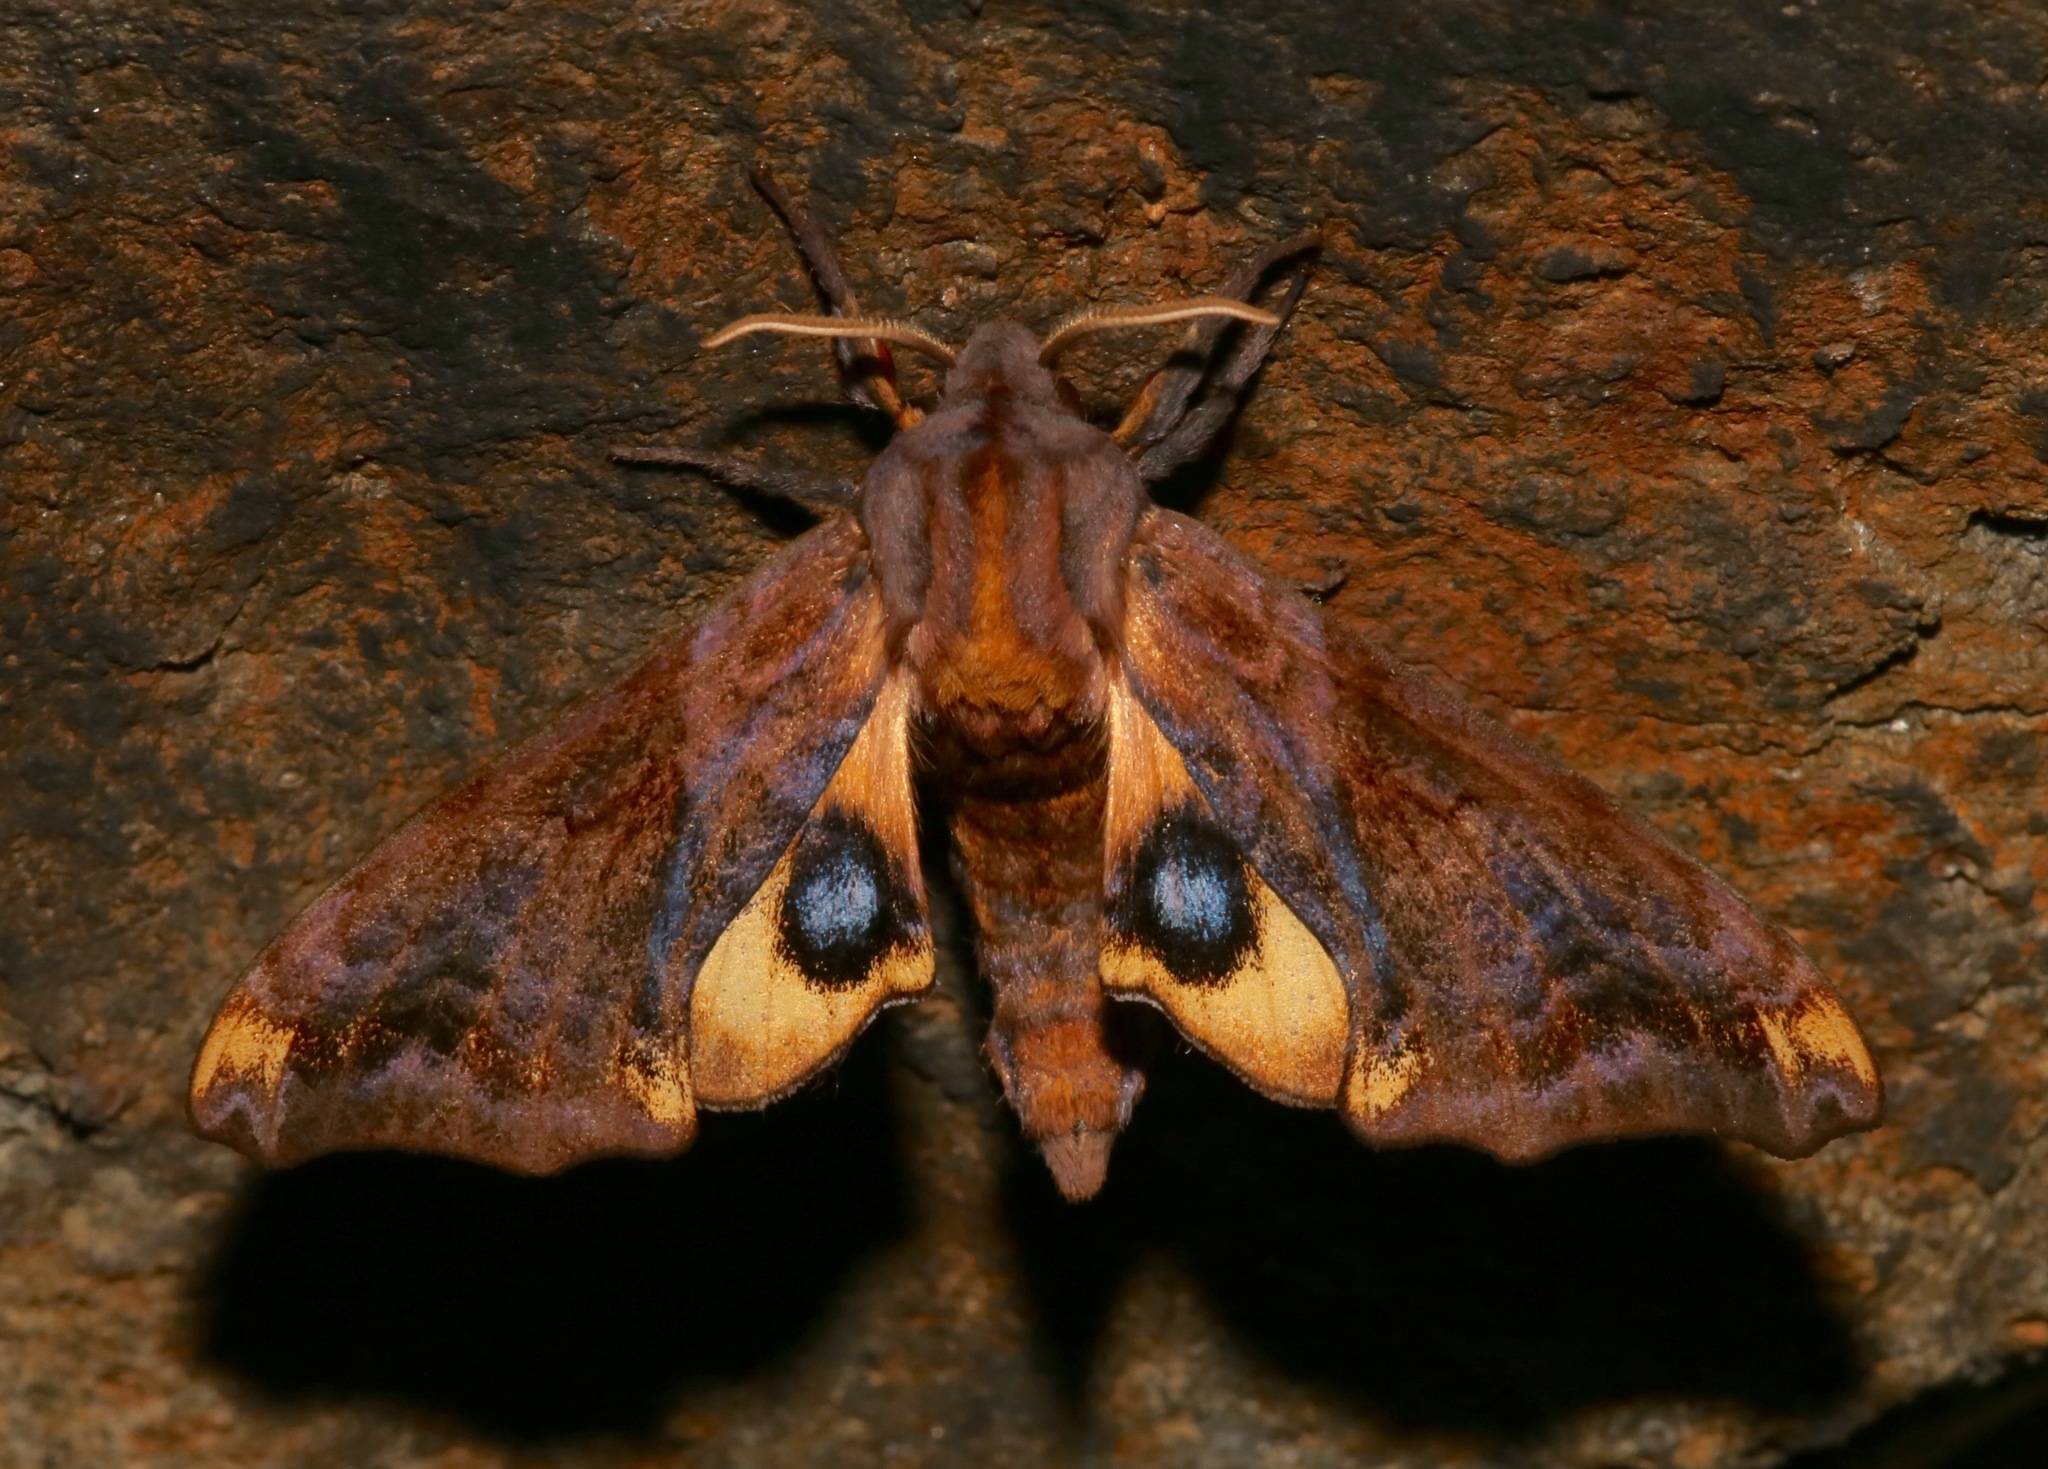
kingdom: Animalia
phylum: Arthropoda
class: Insecta
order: Lepidoptera
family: Sphingidae
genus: Paonias
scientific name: Paonias myops
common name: Small-eyed sphinx
